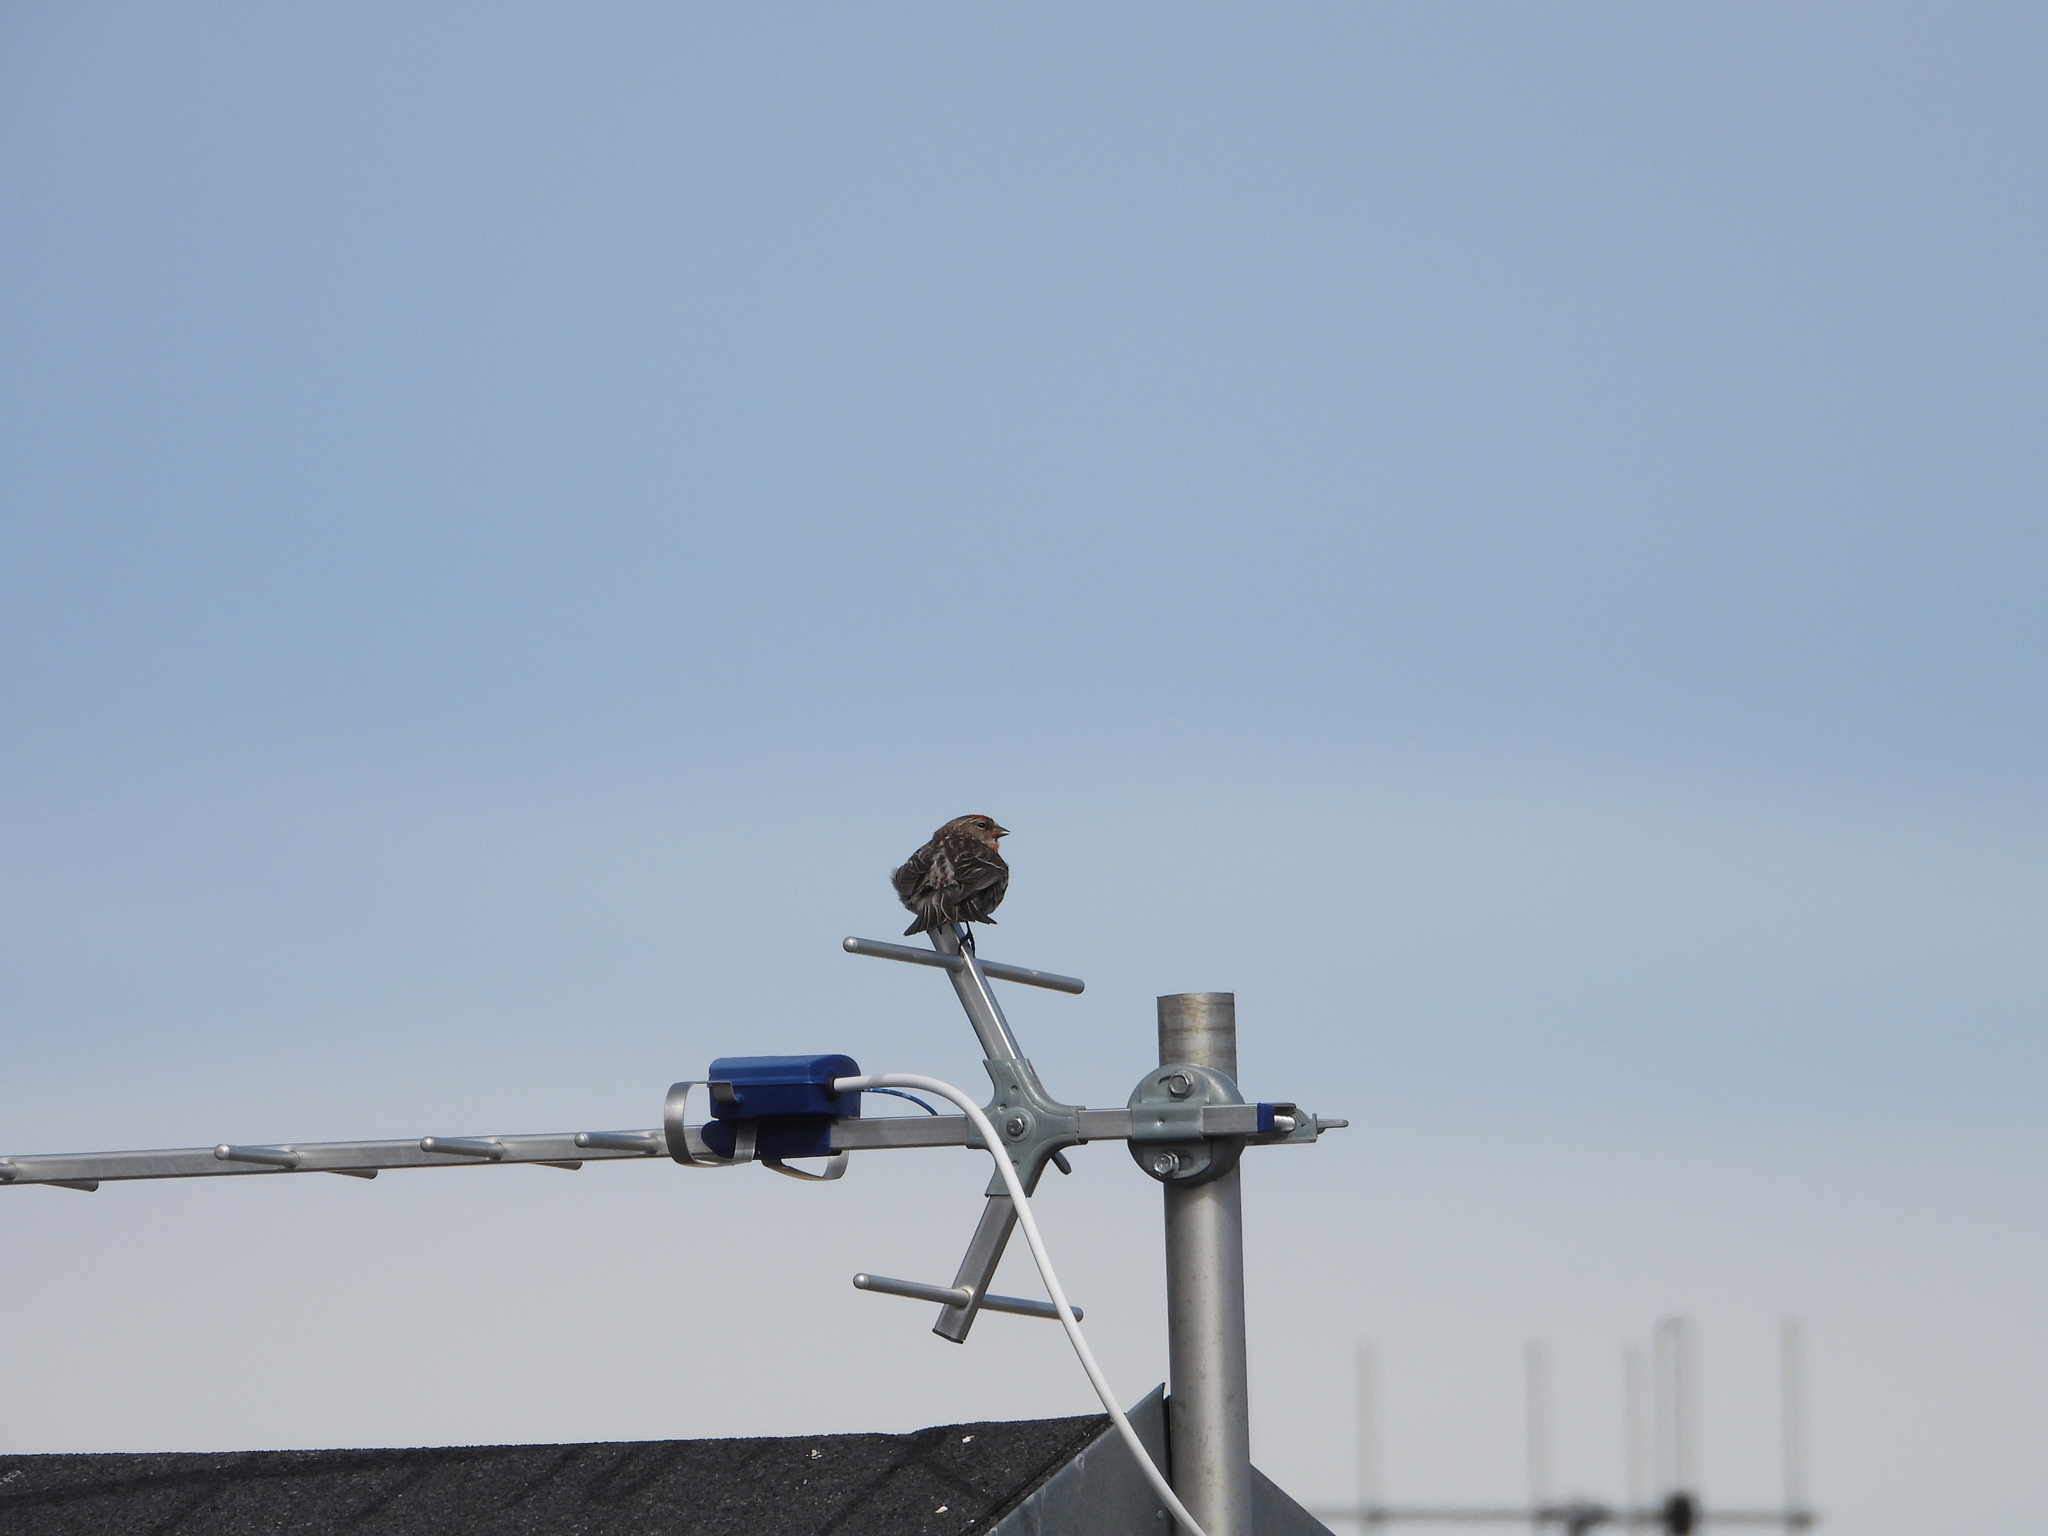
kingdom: Animalia
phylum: Chordata
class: Aves
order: Passeriformes
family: Fringillidae
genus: Acanthis
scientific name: Acanthis flammea
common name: Common redpoll
